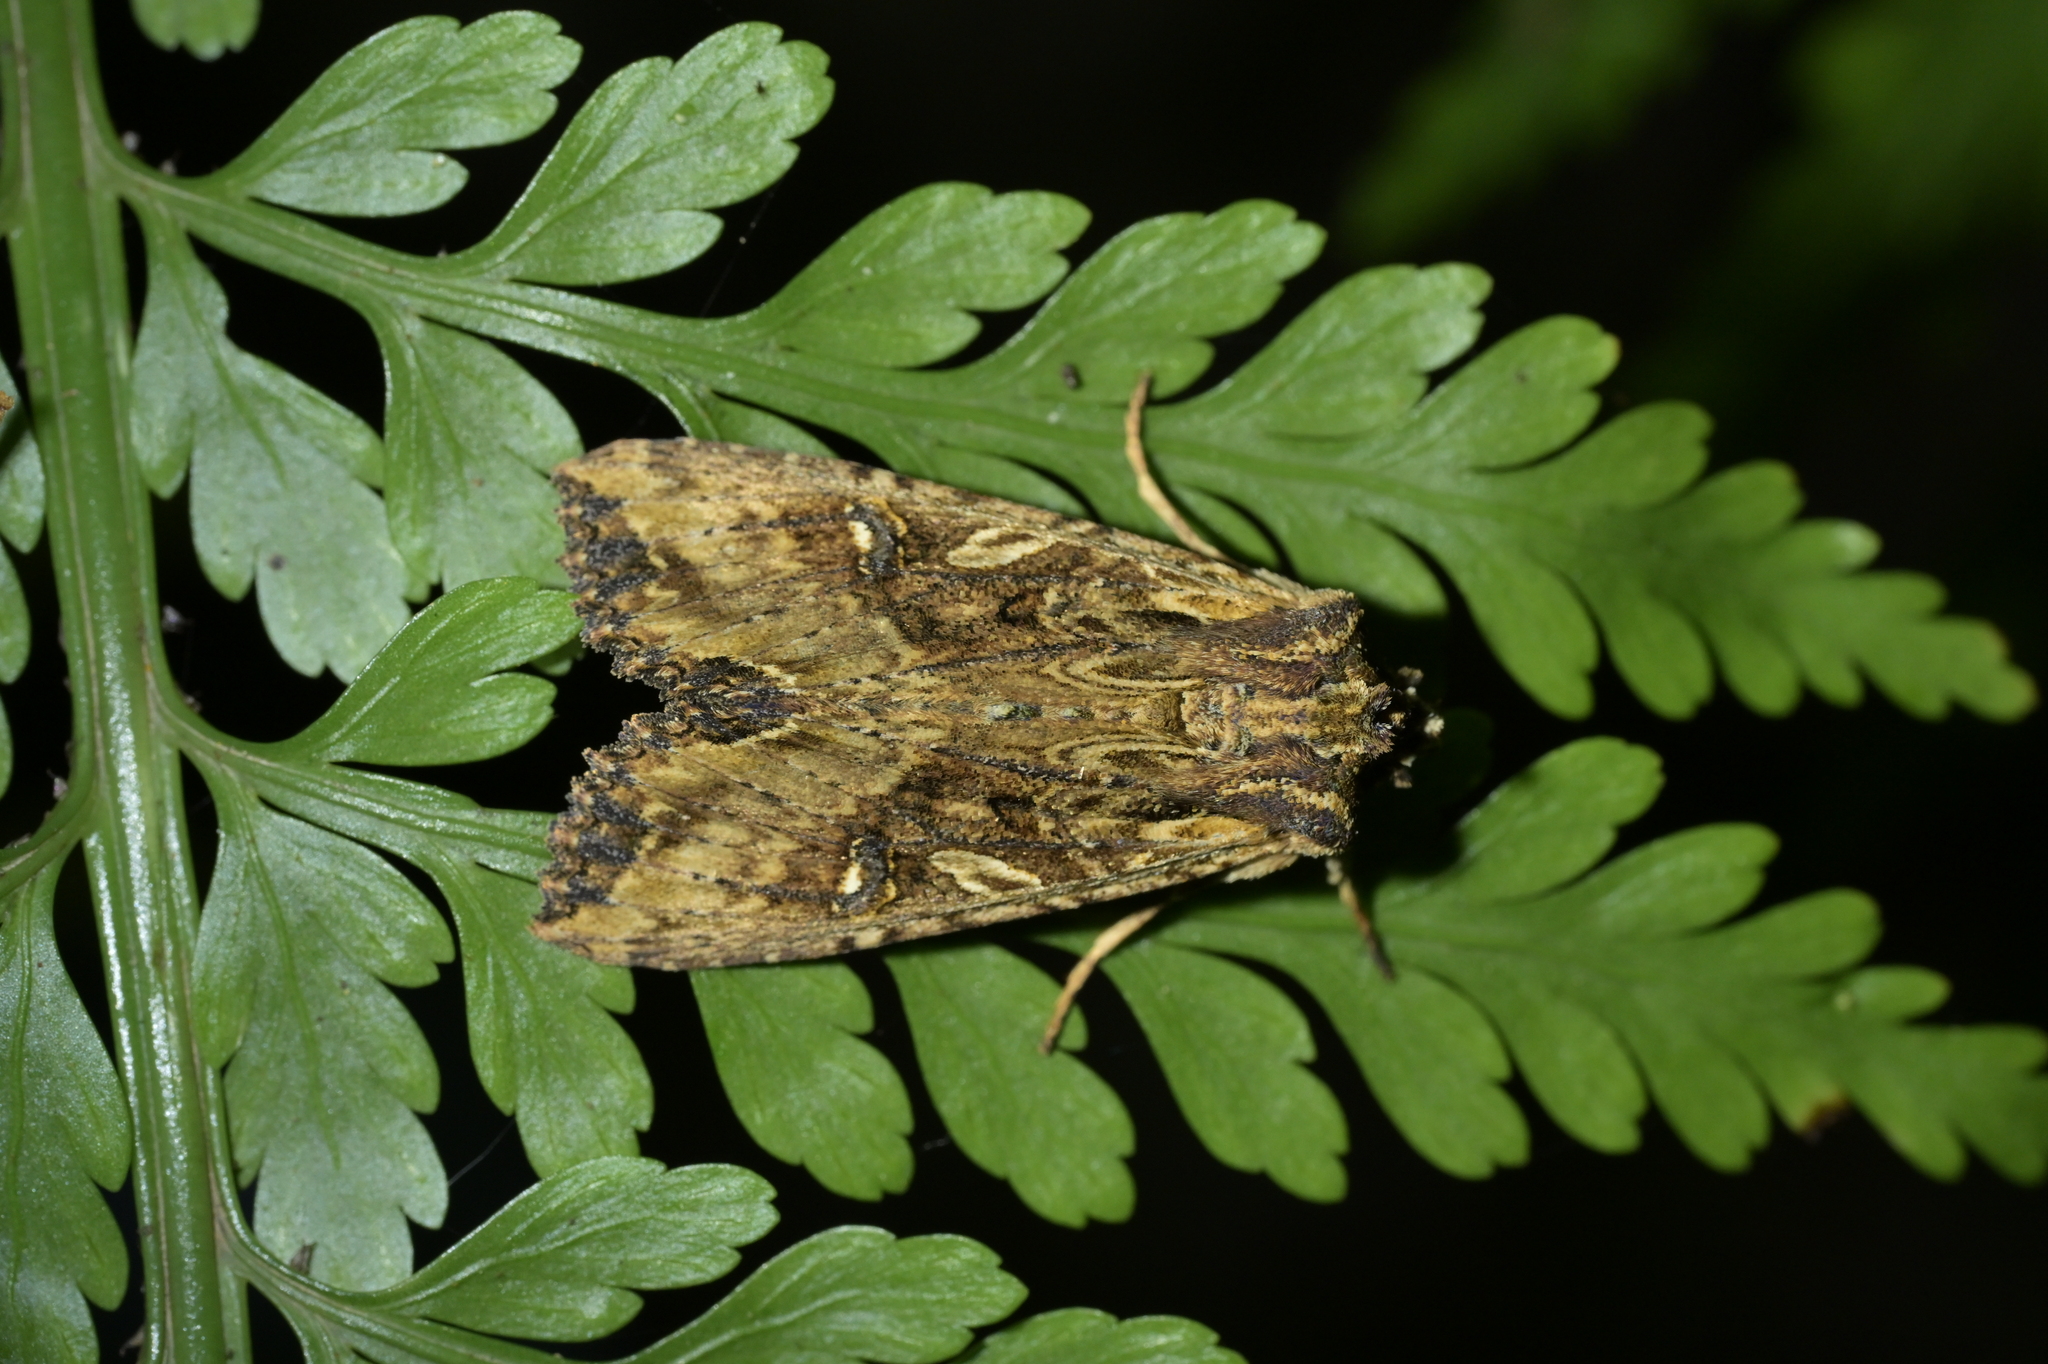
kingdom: Animalia
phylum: Arthropoda
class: Insecta
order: Lepidoptera
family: Noctuidae
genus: Meterana
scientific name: Meterana stipata
